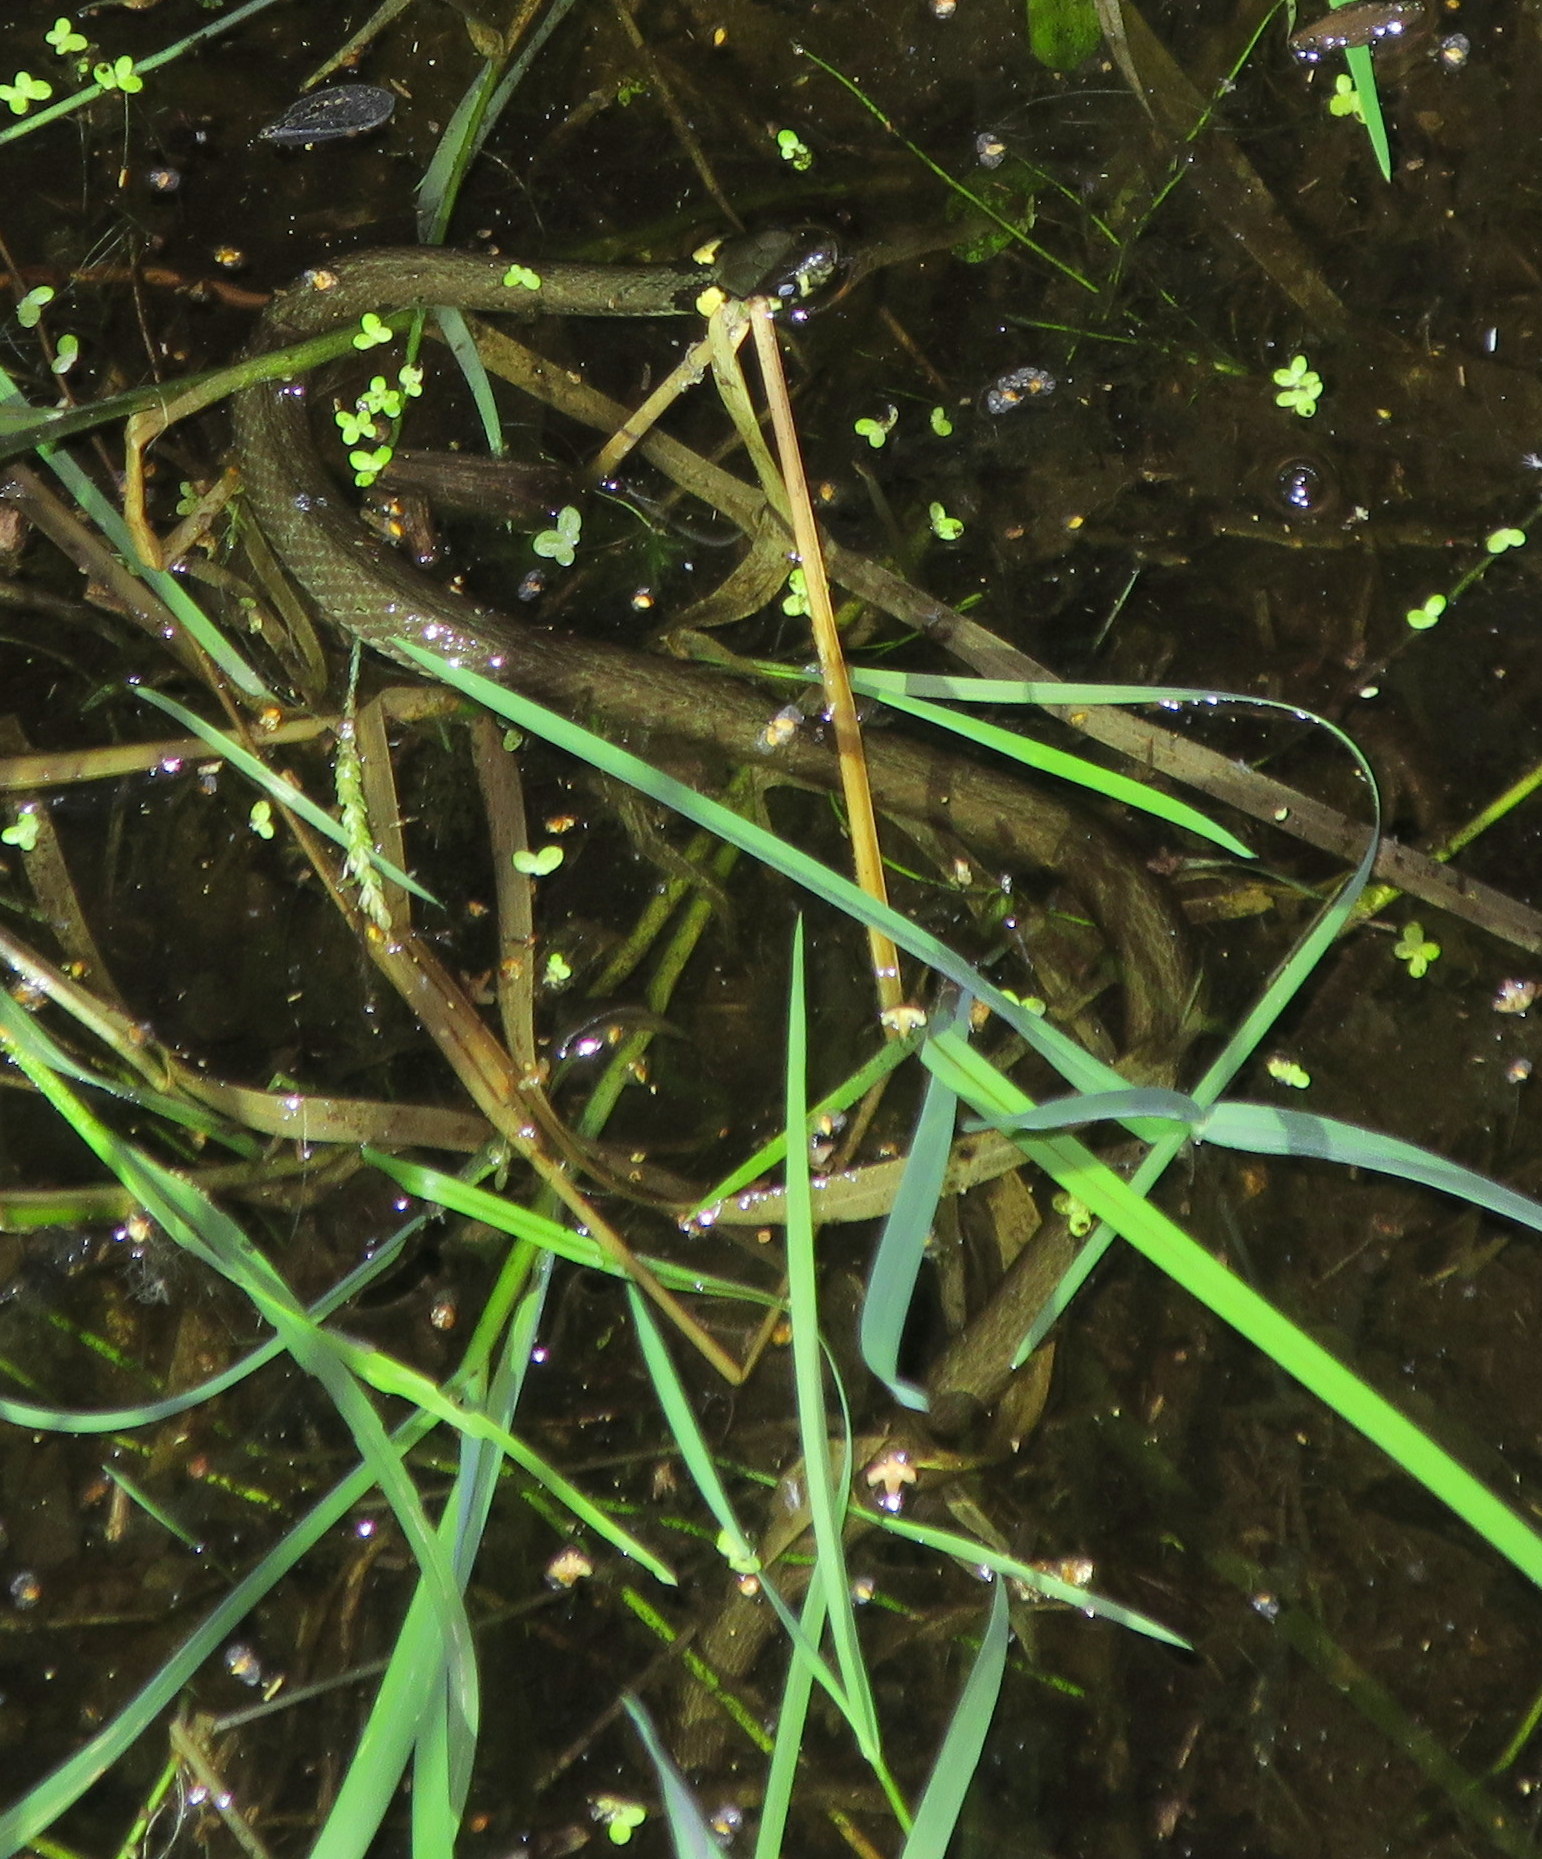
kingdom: Animalia
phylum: Chordata
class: Squamata
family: Colubridae
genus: Natrix
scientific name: Natrix natrix
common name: Grass snake
